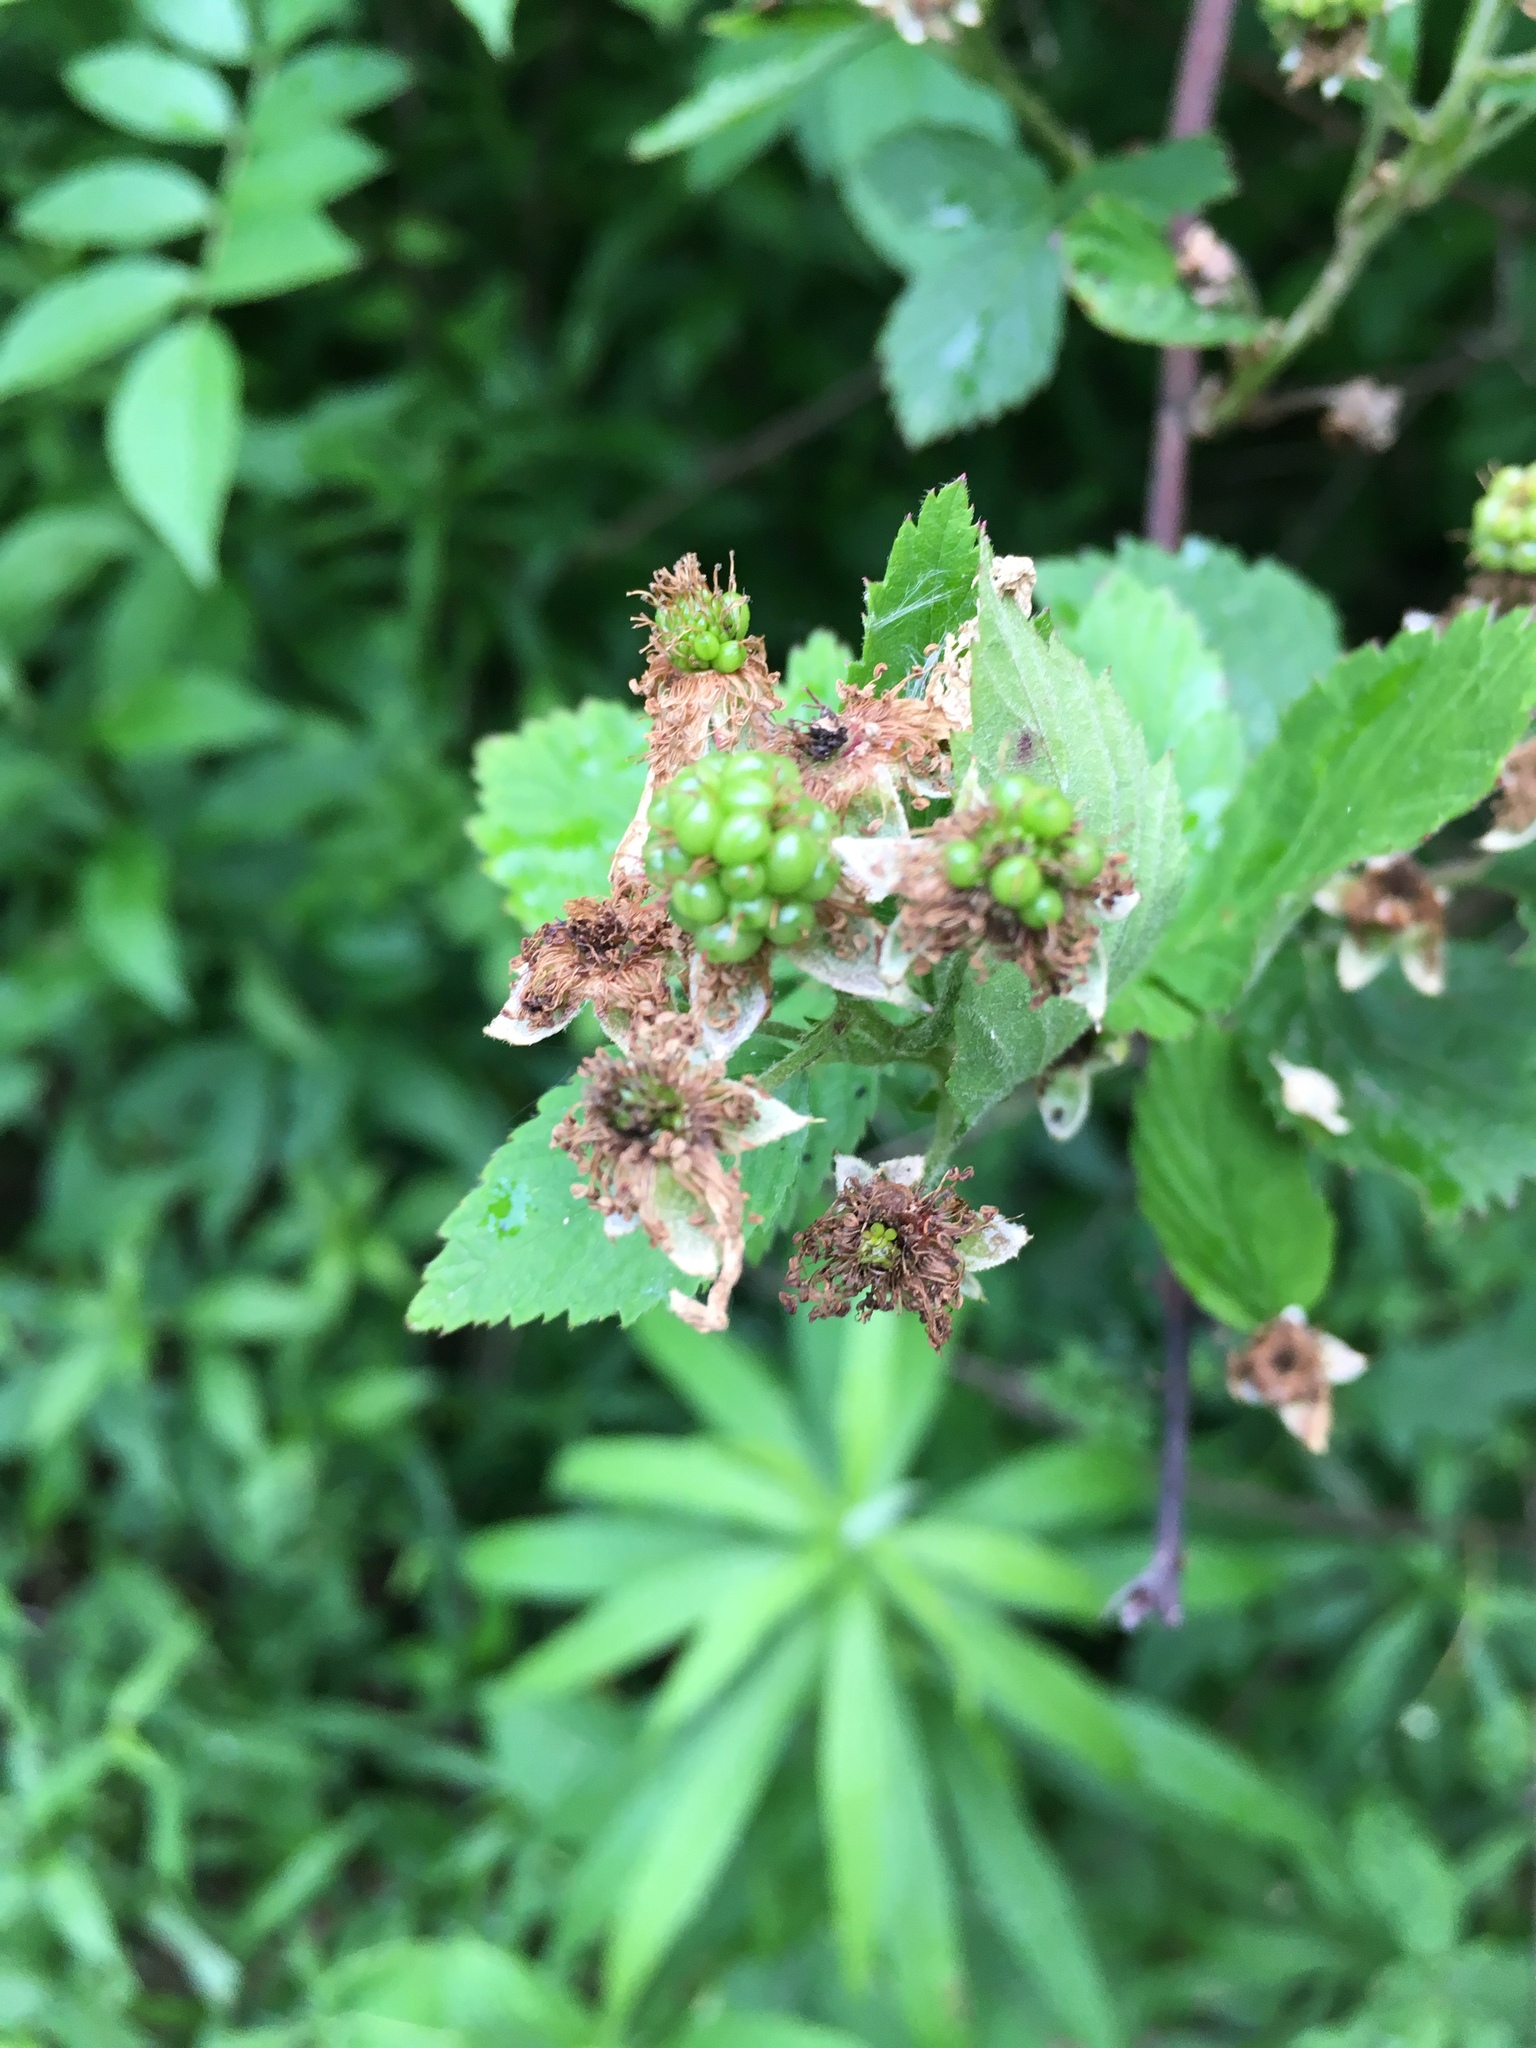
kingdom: Plantae
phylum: Tracheophyta
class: Magnoliopsida
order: Rosales
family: Rosaceae
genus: Rubus
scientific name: Rubus occidentalis
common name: Black raspberry
